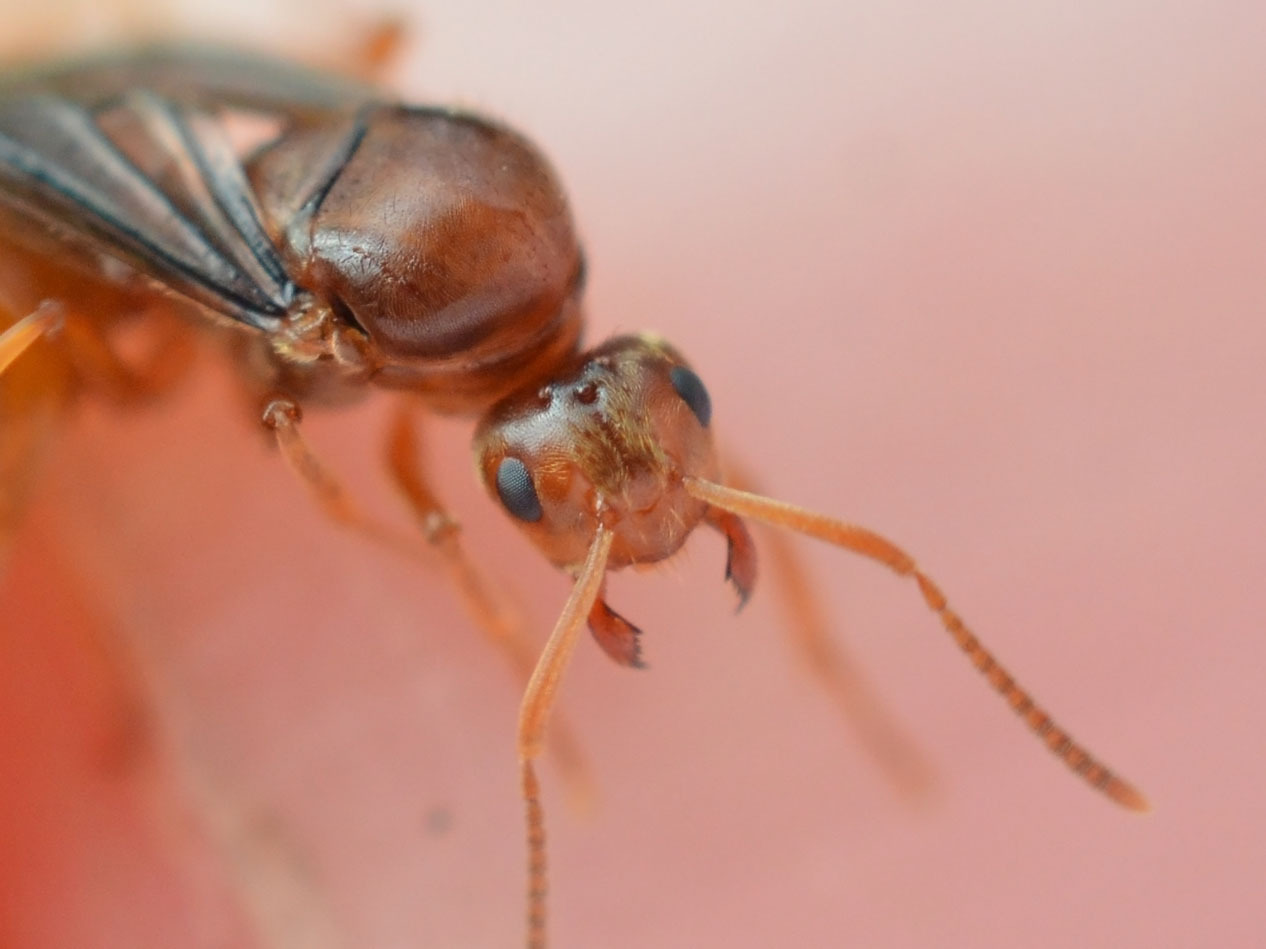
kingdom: Animalia
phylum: Arthropoda
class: Insecta
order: Hymenoptera
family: Formicidae
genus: Prenolepis
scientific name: Prenolepis nitens
